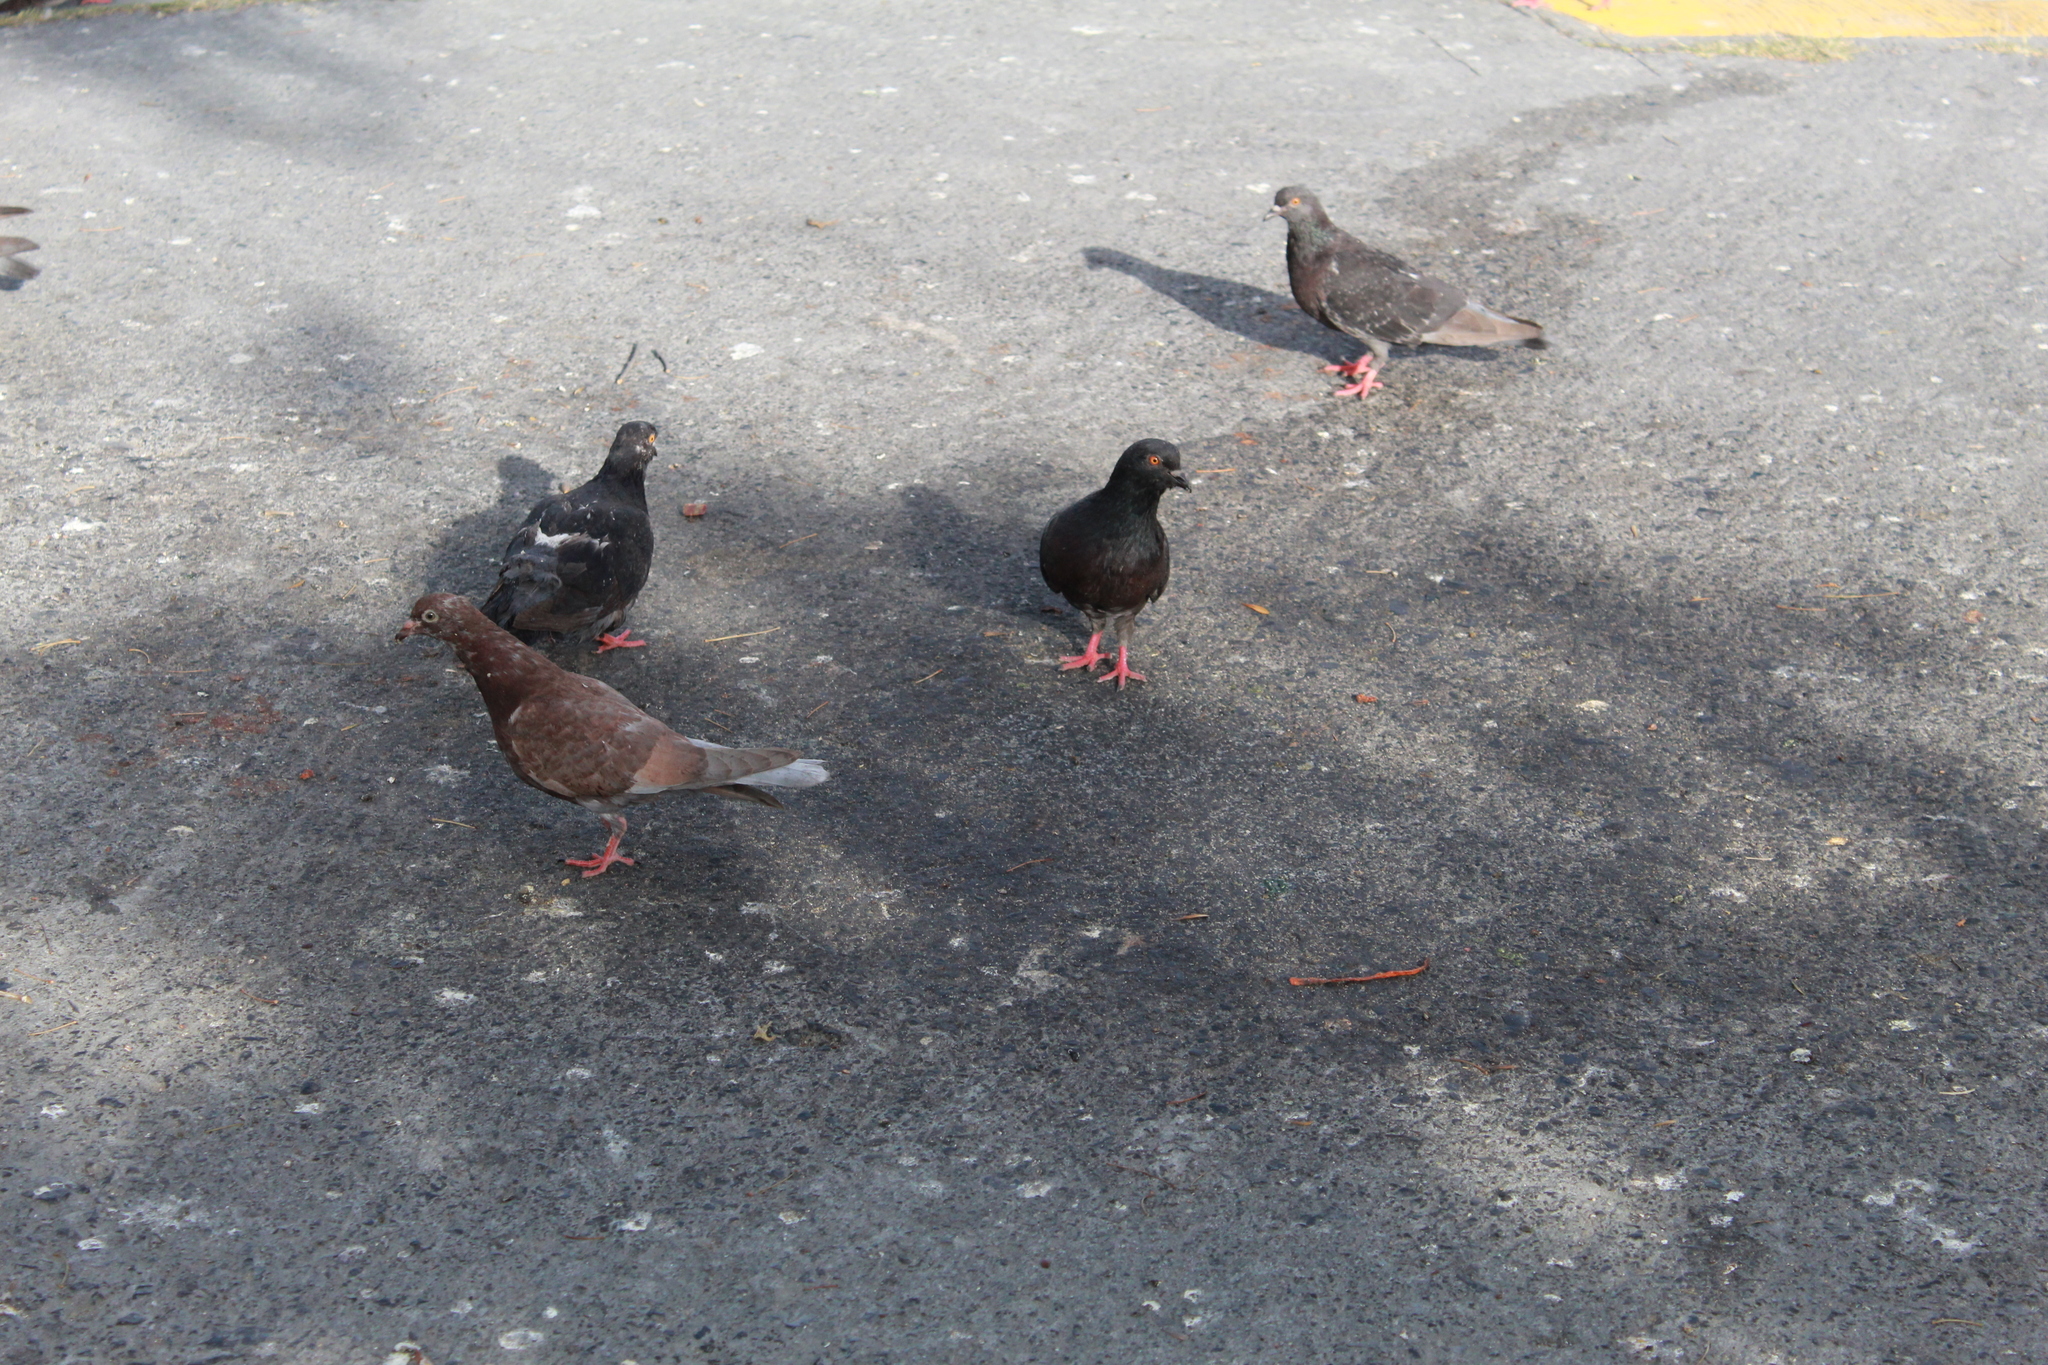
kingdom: Animalia
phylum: Chordata
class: Aves
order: Columbiformes
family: Columbidae
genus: Columba
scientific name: Columba livia
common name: Rock pigeon
